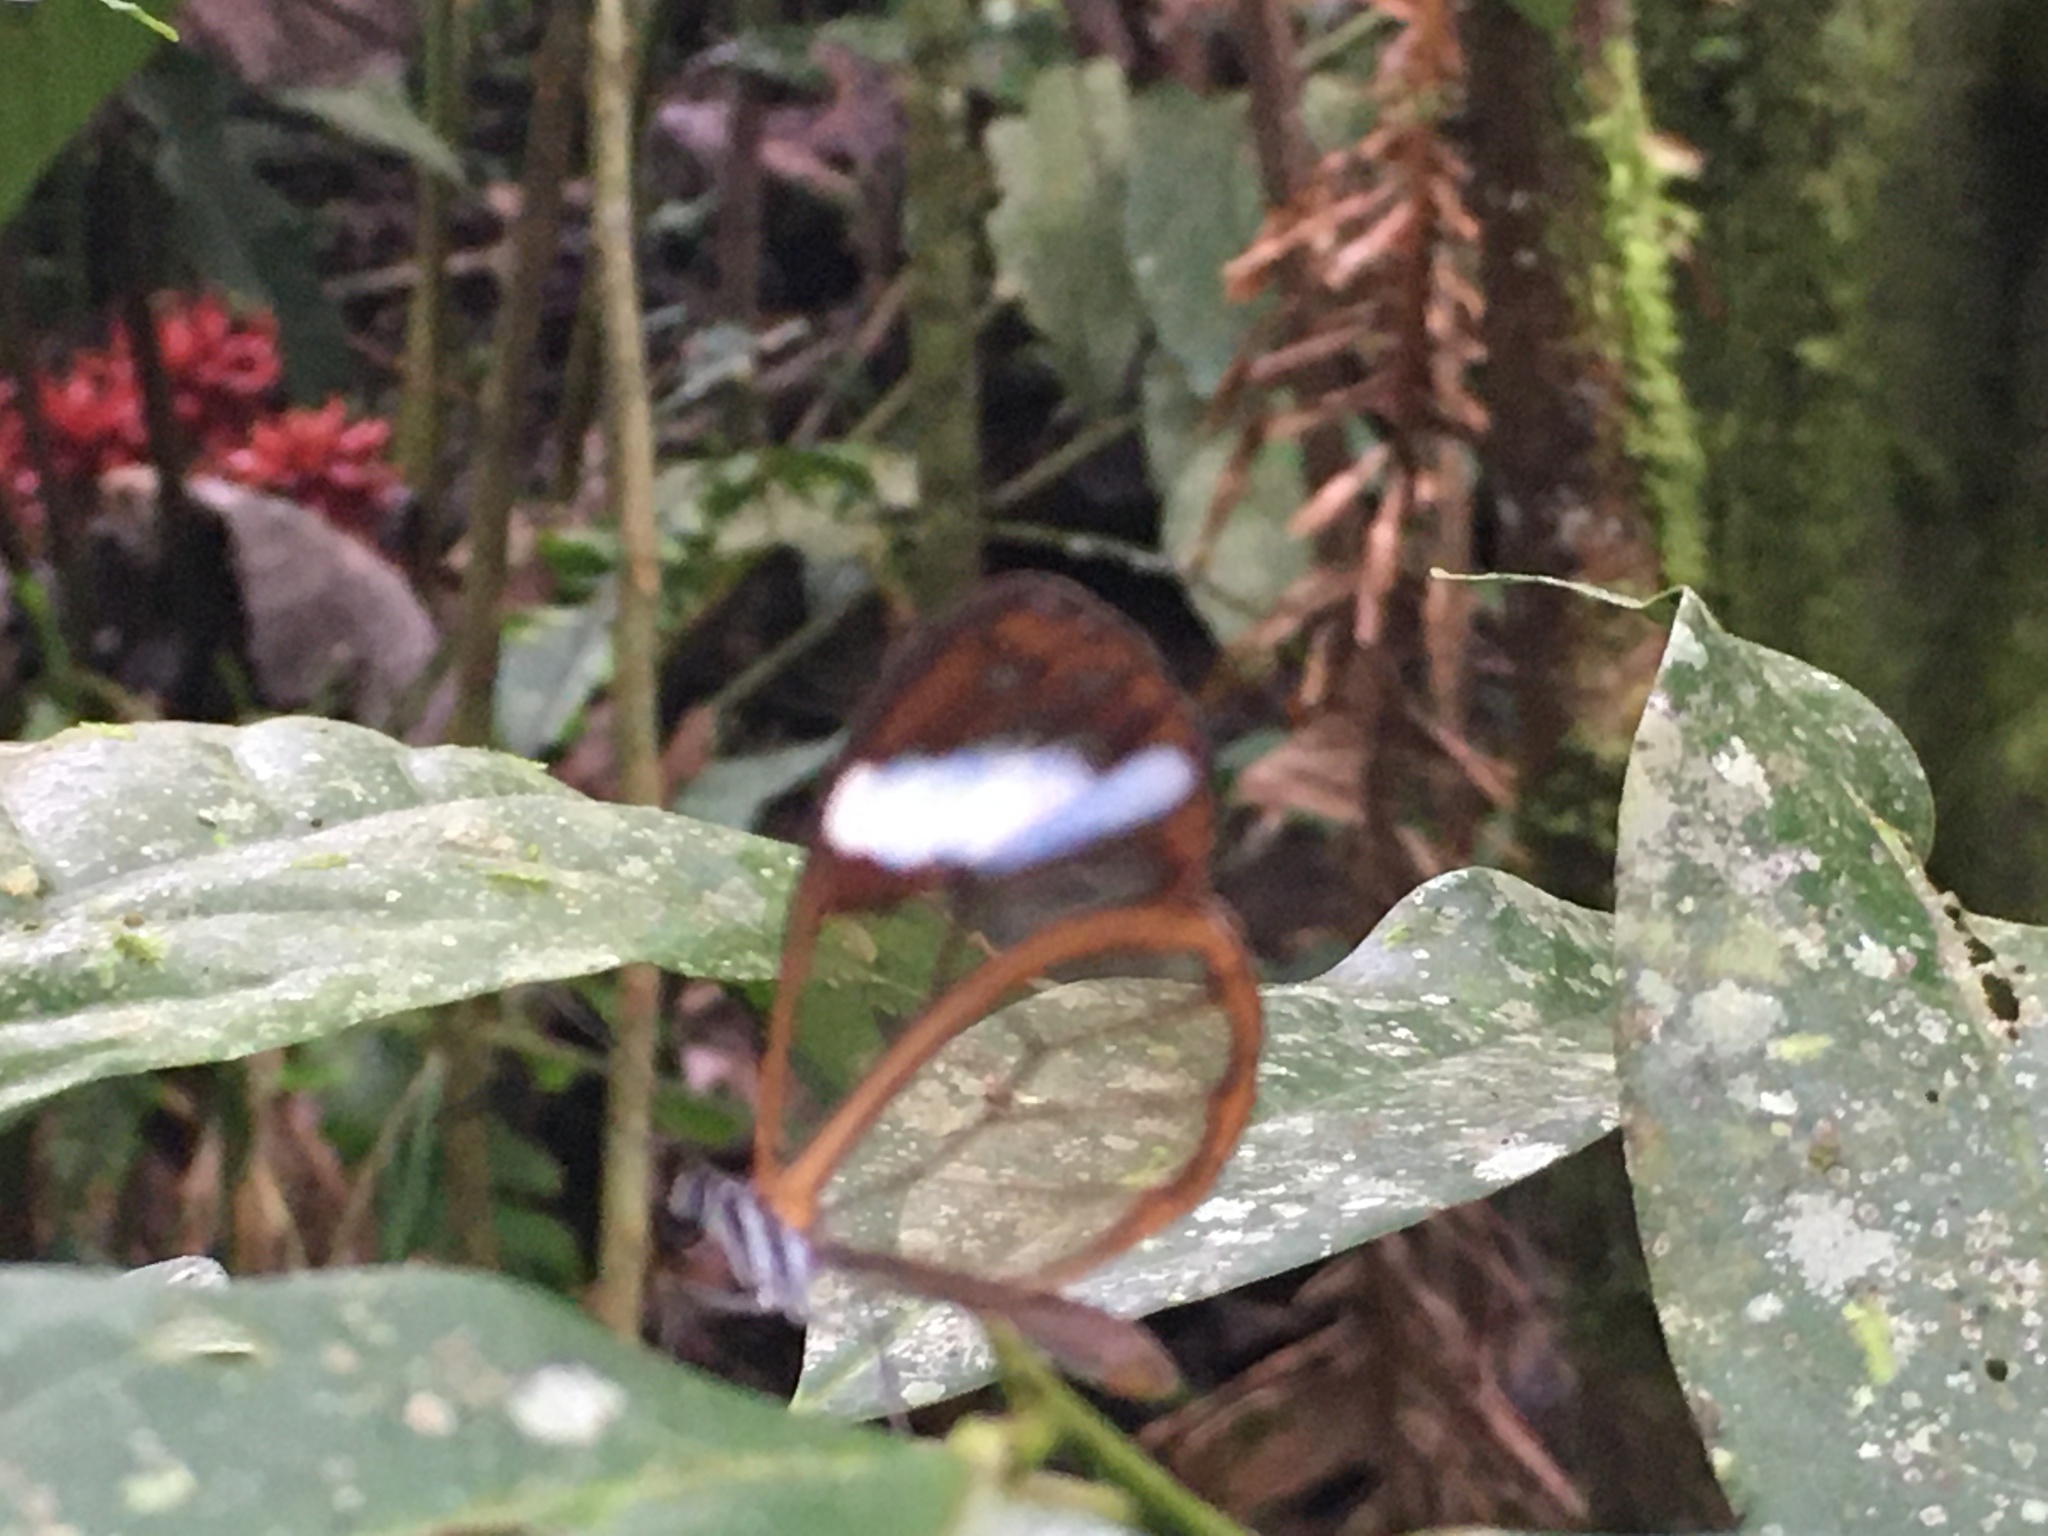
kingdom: Animalia
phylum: Arthropoda
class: Insecta
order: Lepidoptera
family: Nymphalidae
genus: Greta
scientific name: Greta andromica
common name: Andromica clearwing
